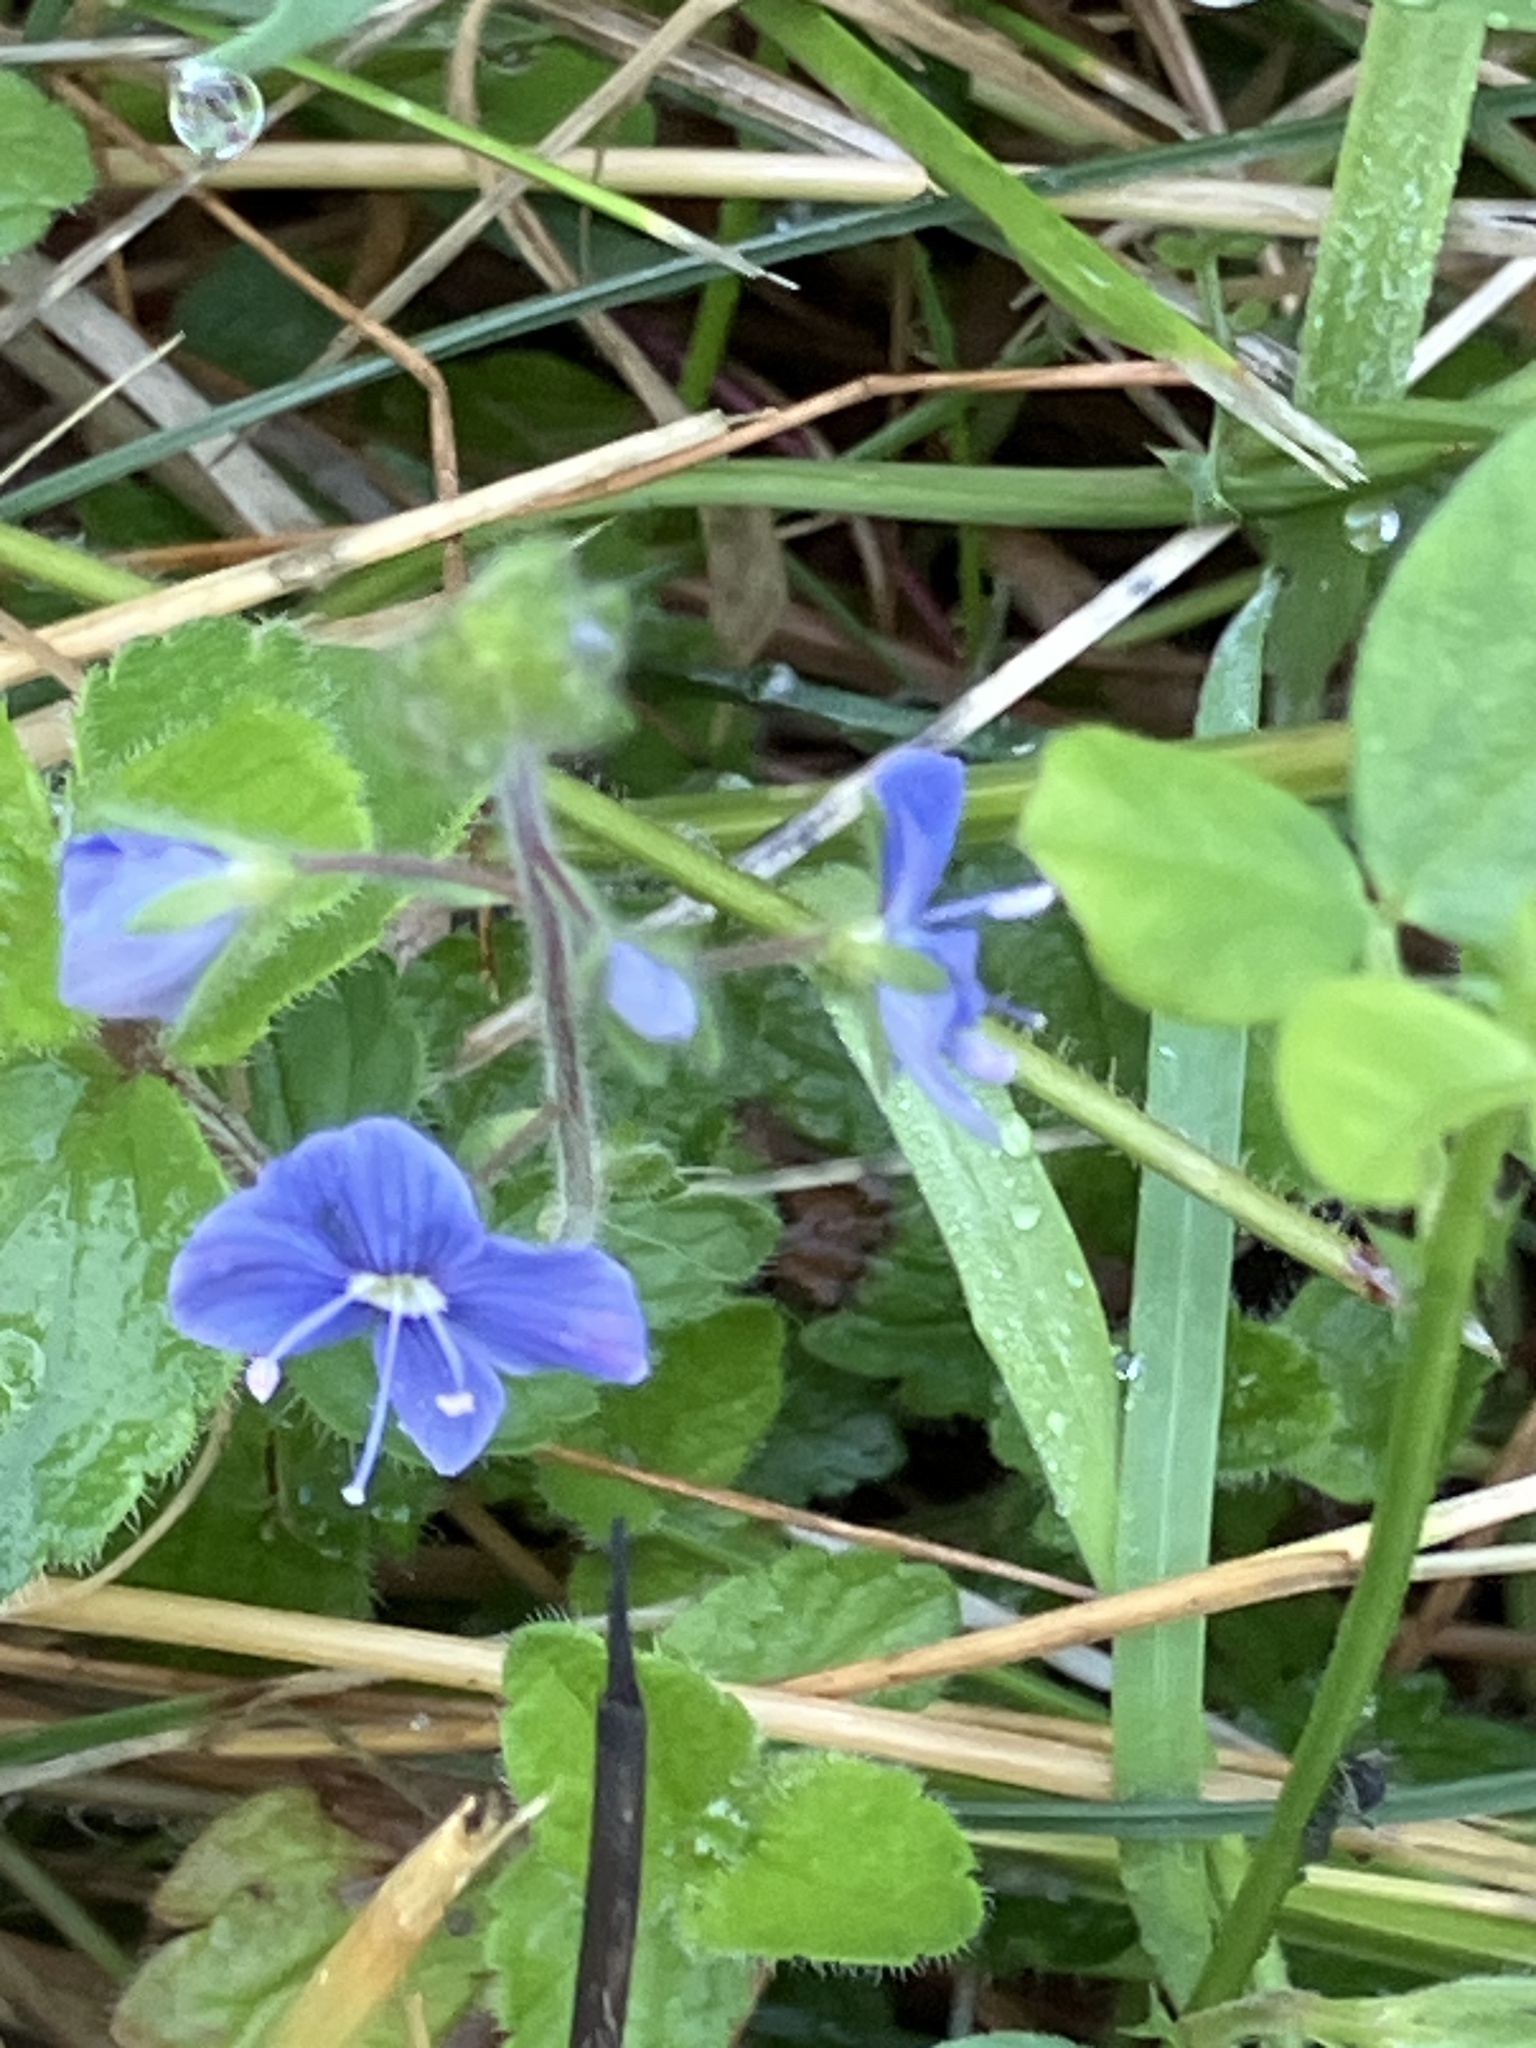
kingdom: Plantae
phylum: Tracheophyta
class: Magnoliopsida
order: Lamiales
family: Plantaginaceae
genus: Veronica
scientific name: Veronica chamaedrys
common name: Germander speedwell
